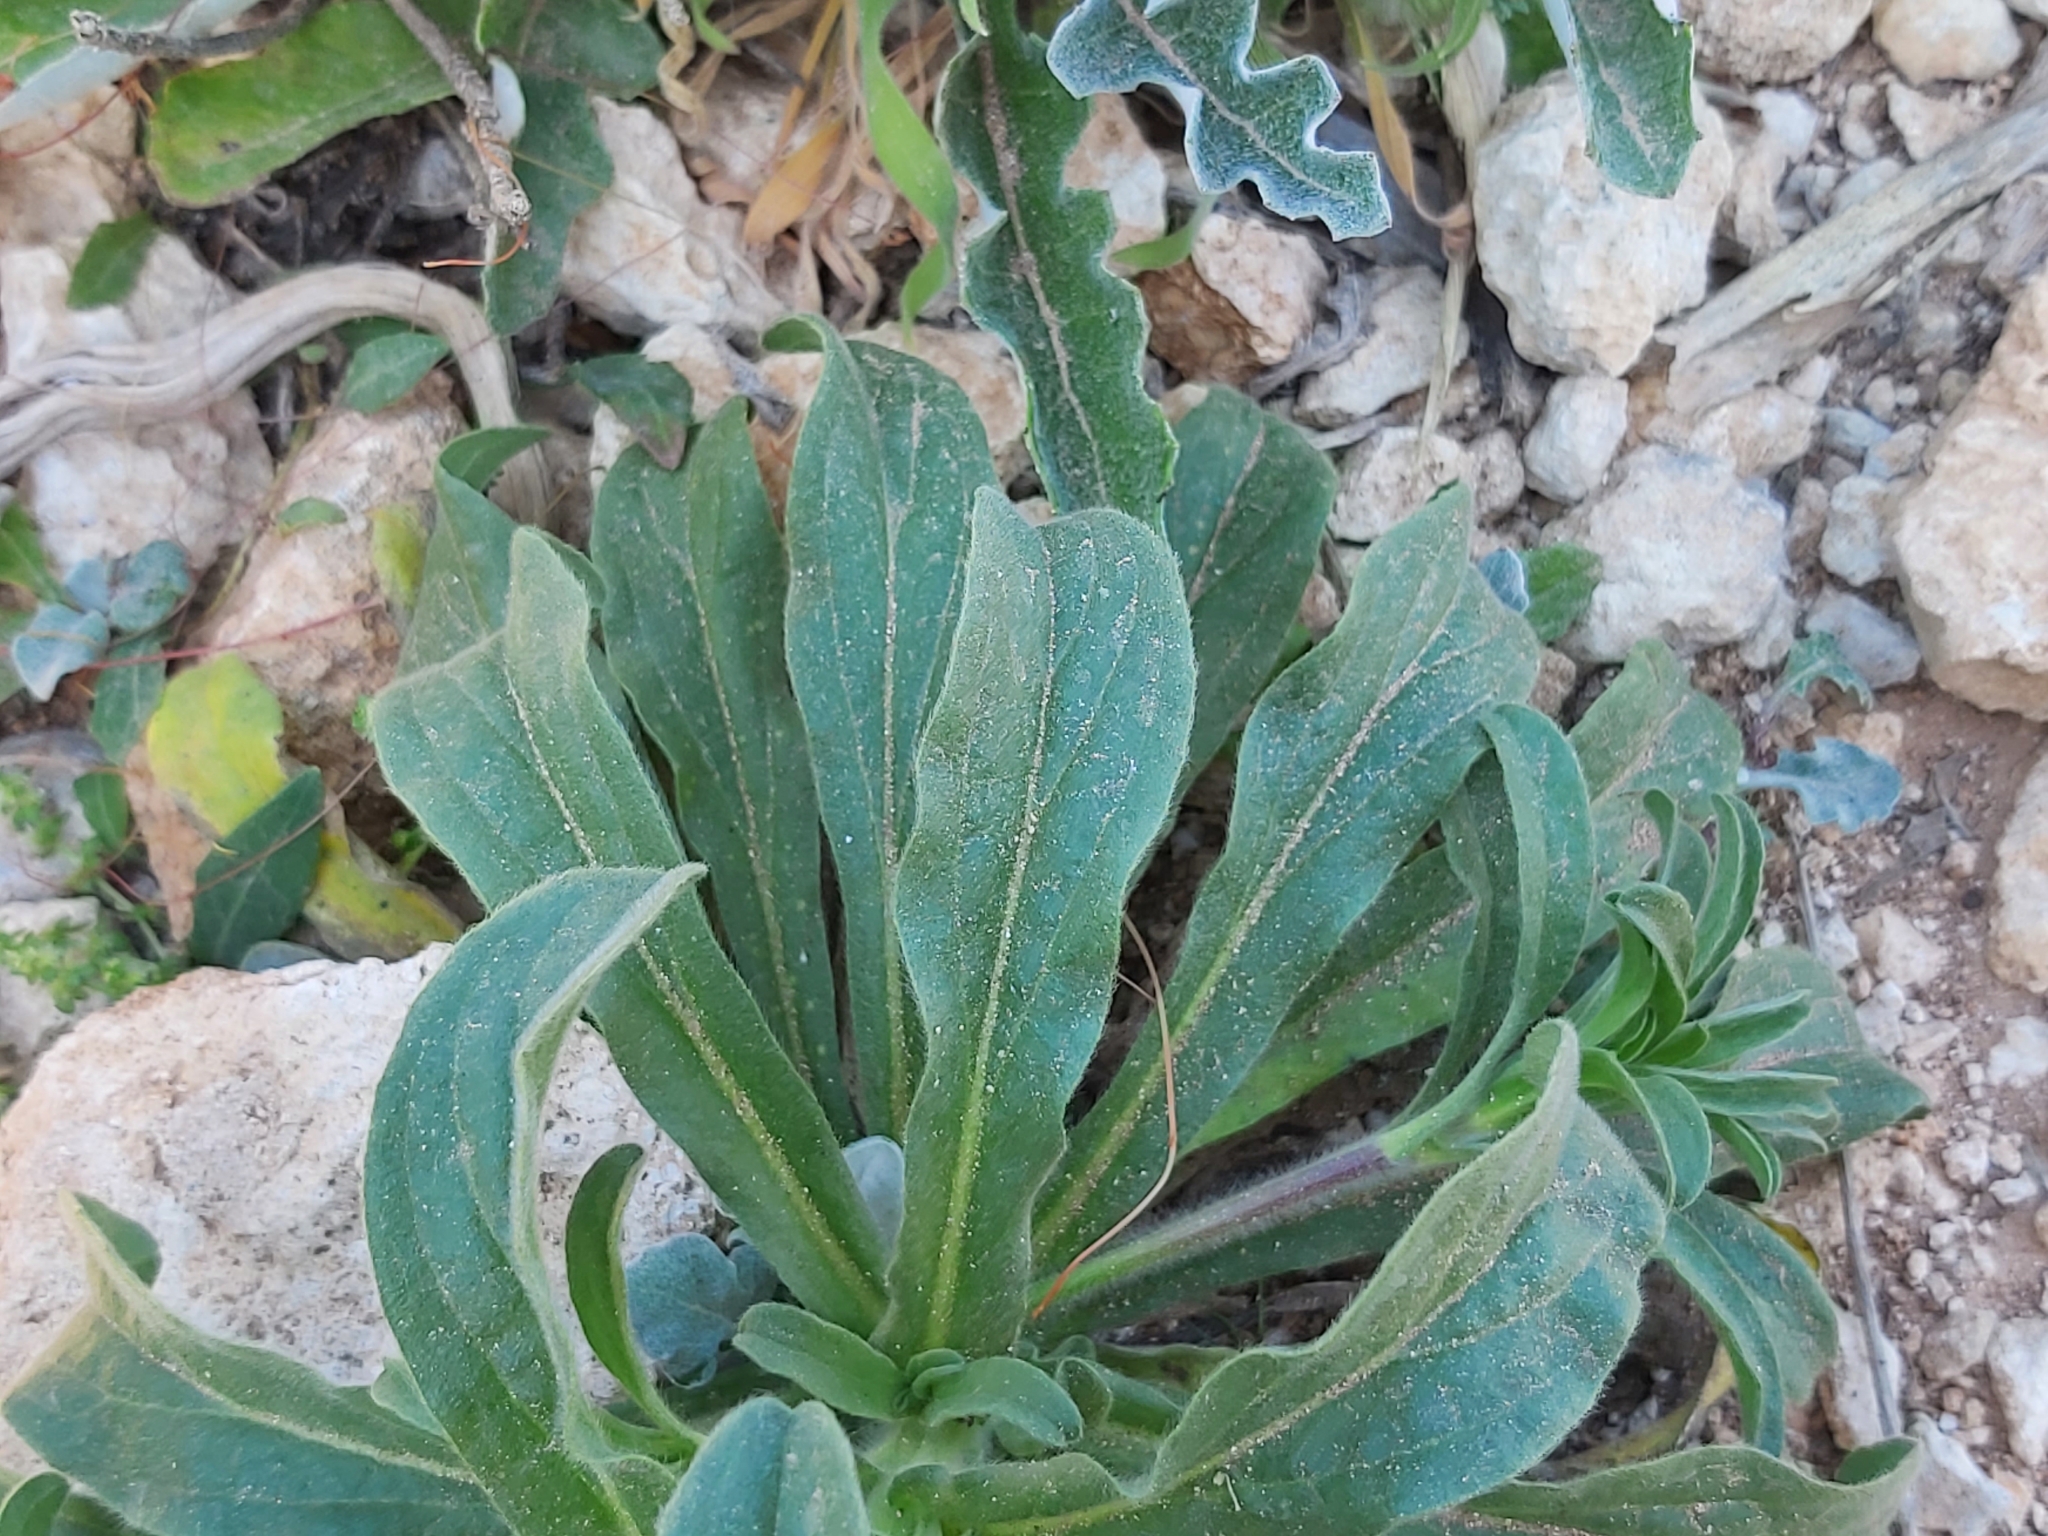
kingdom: Plantae
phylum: Tracheophyta
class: Magnoliopsida
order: Asterales
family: Asteraceae
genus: Asteriscus
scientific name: Asteriscus aquaticus
